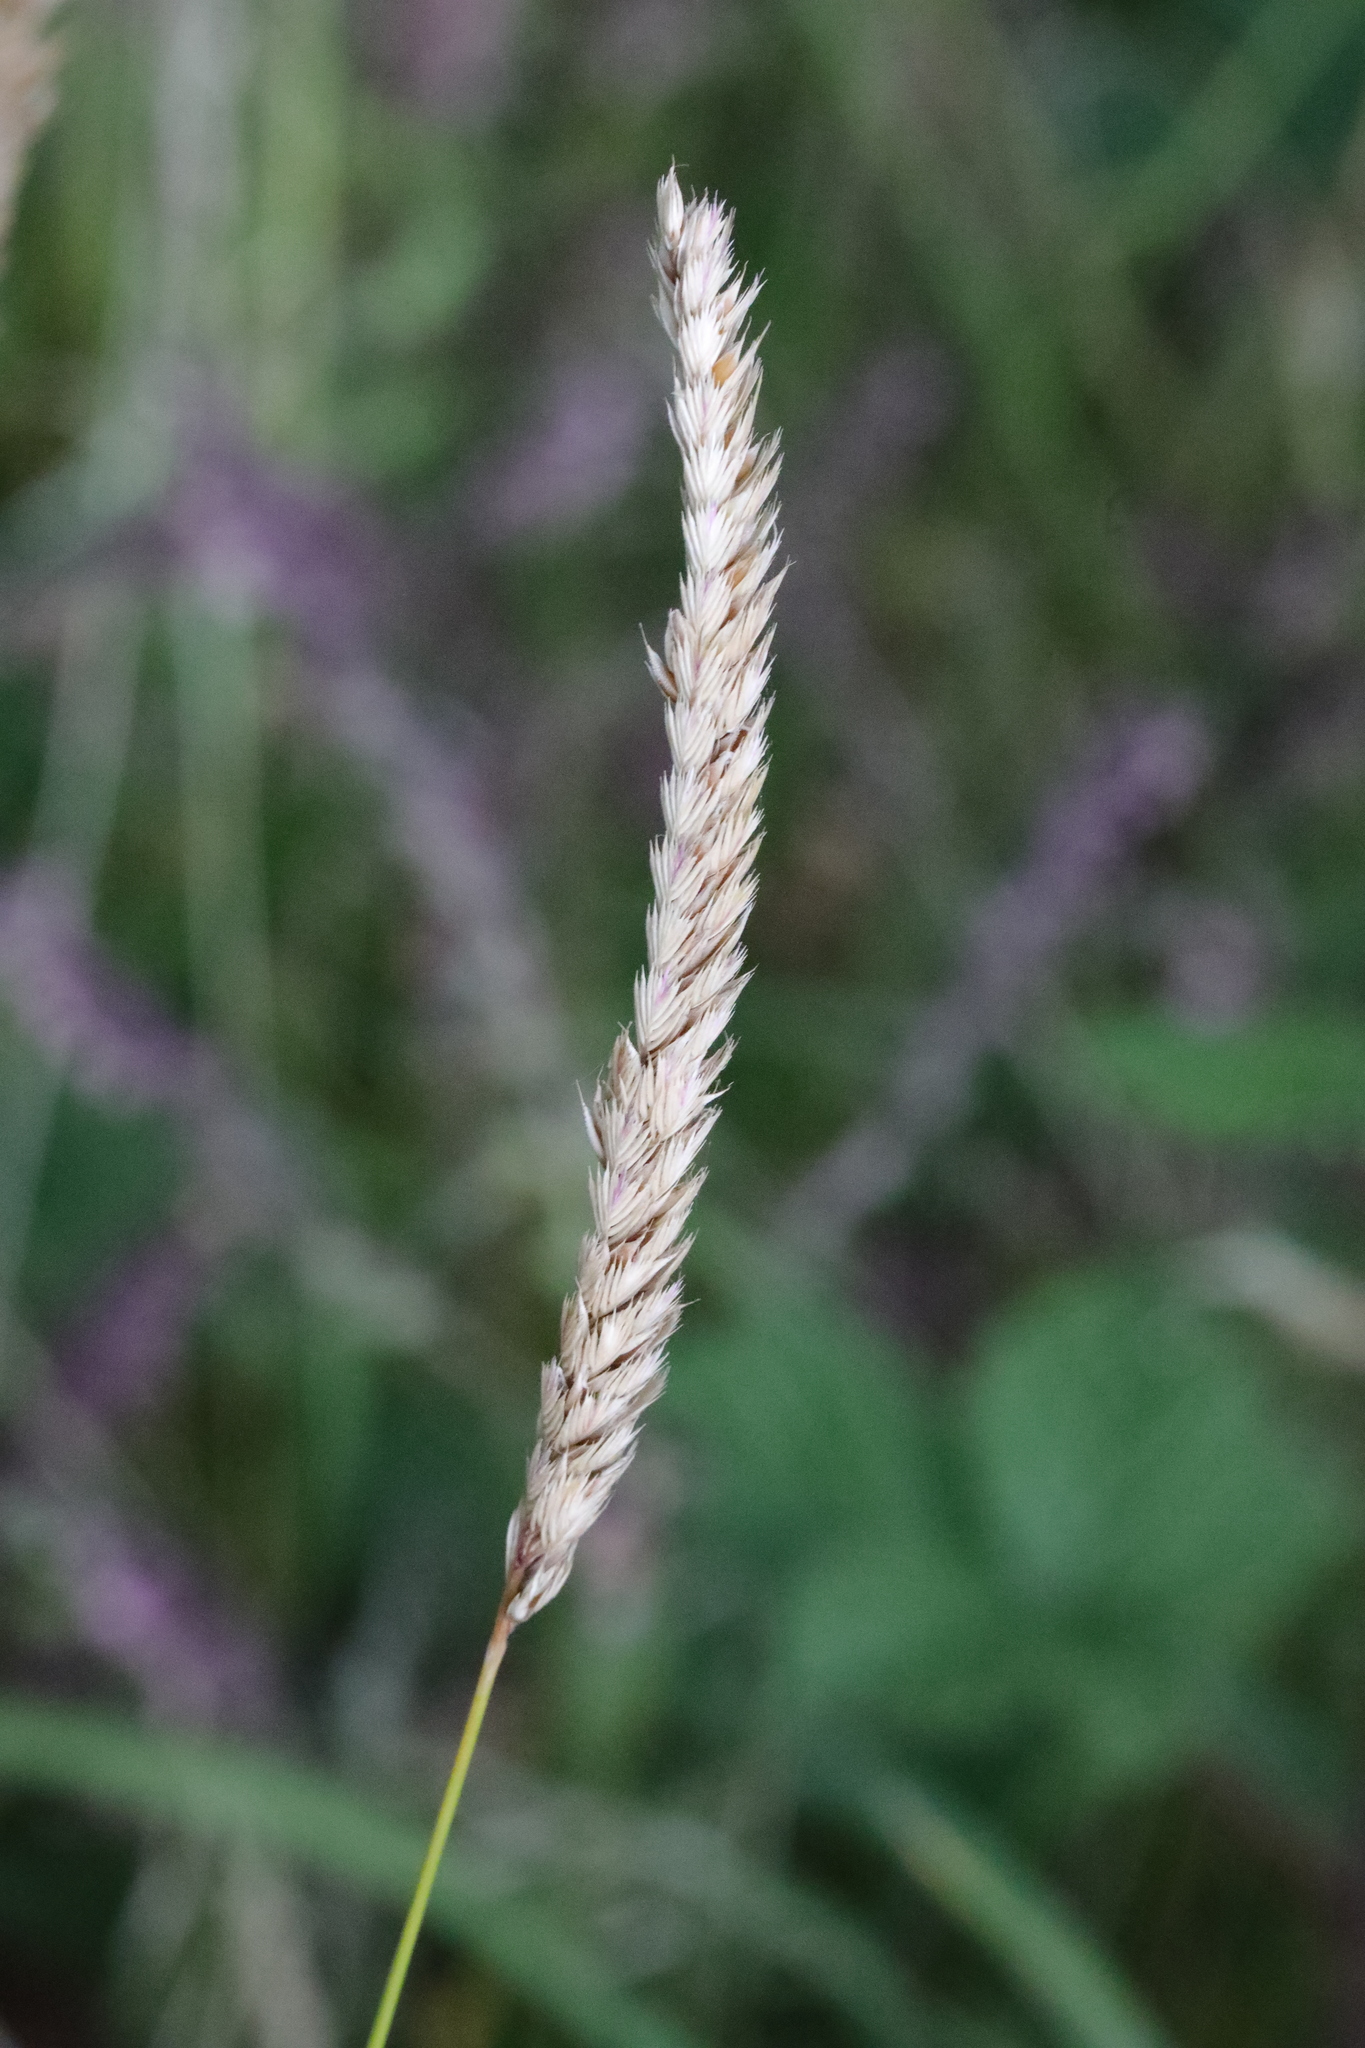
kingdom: Plantae
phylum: Tracheophyta
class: Liliopsida
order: Poales
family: Poaceae
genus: Cynosurus
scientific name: Cynosurus cristatus
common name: Crested dog's-tail
